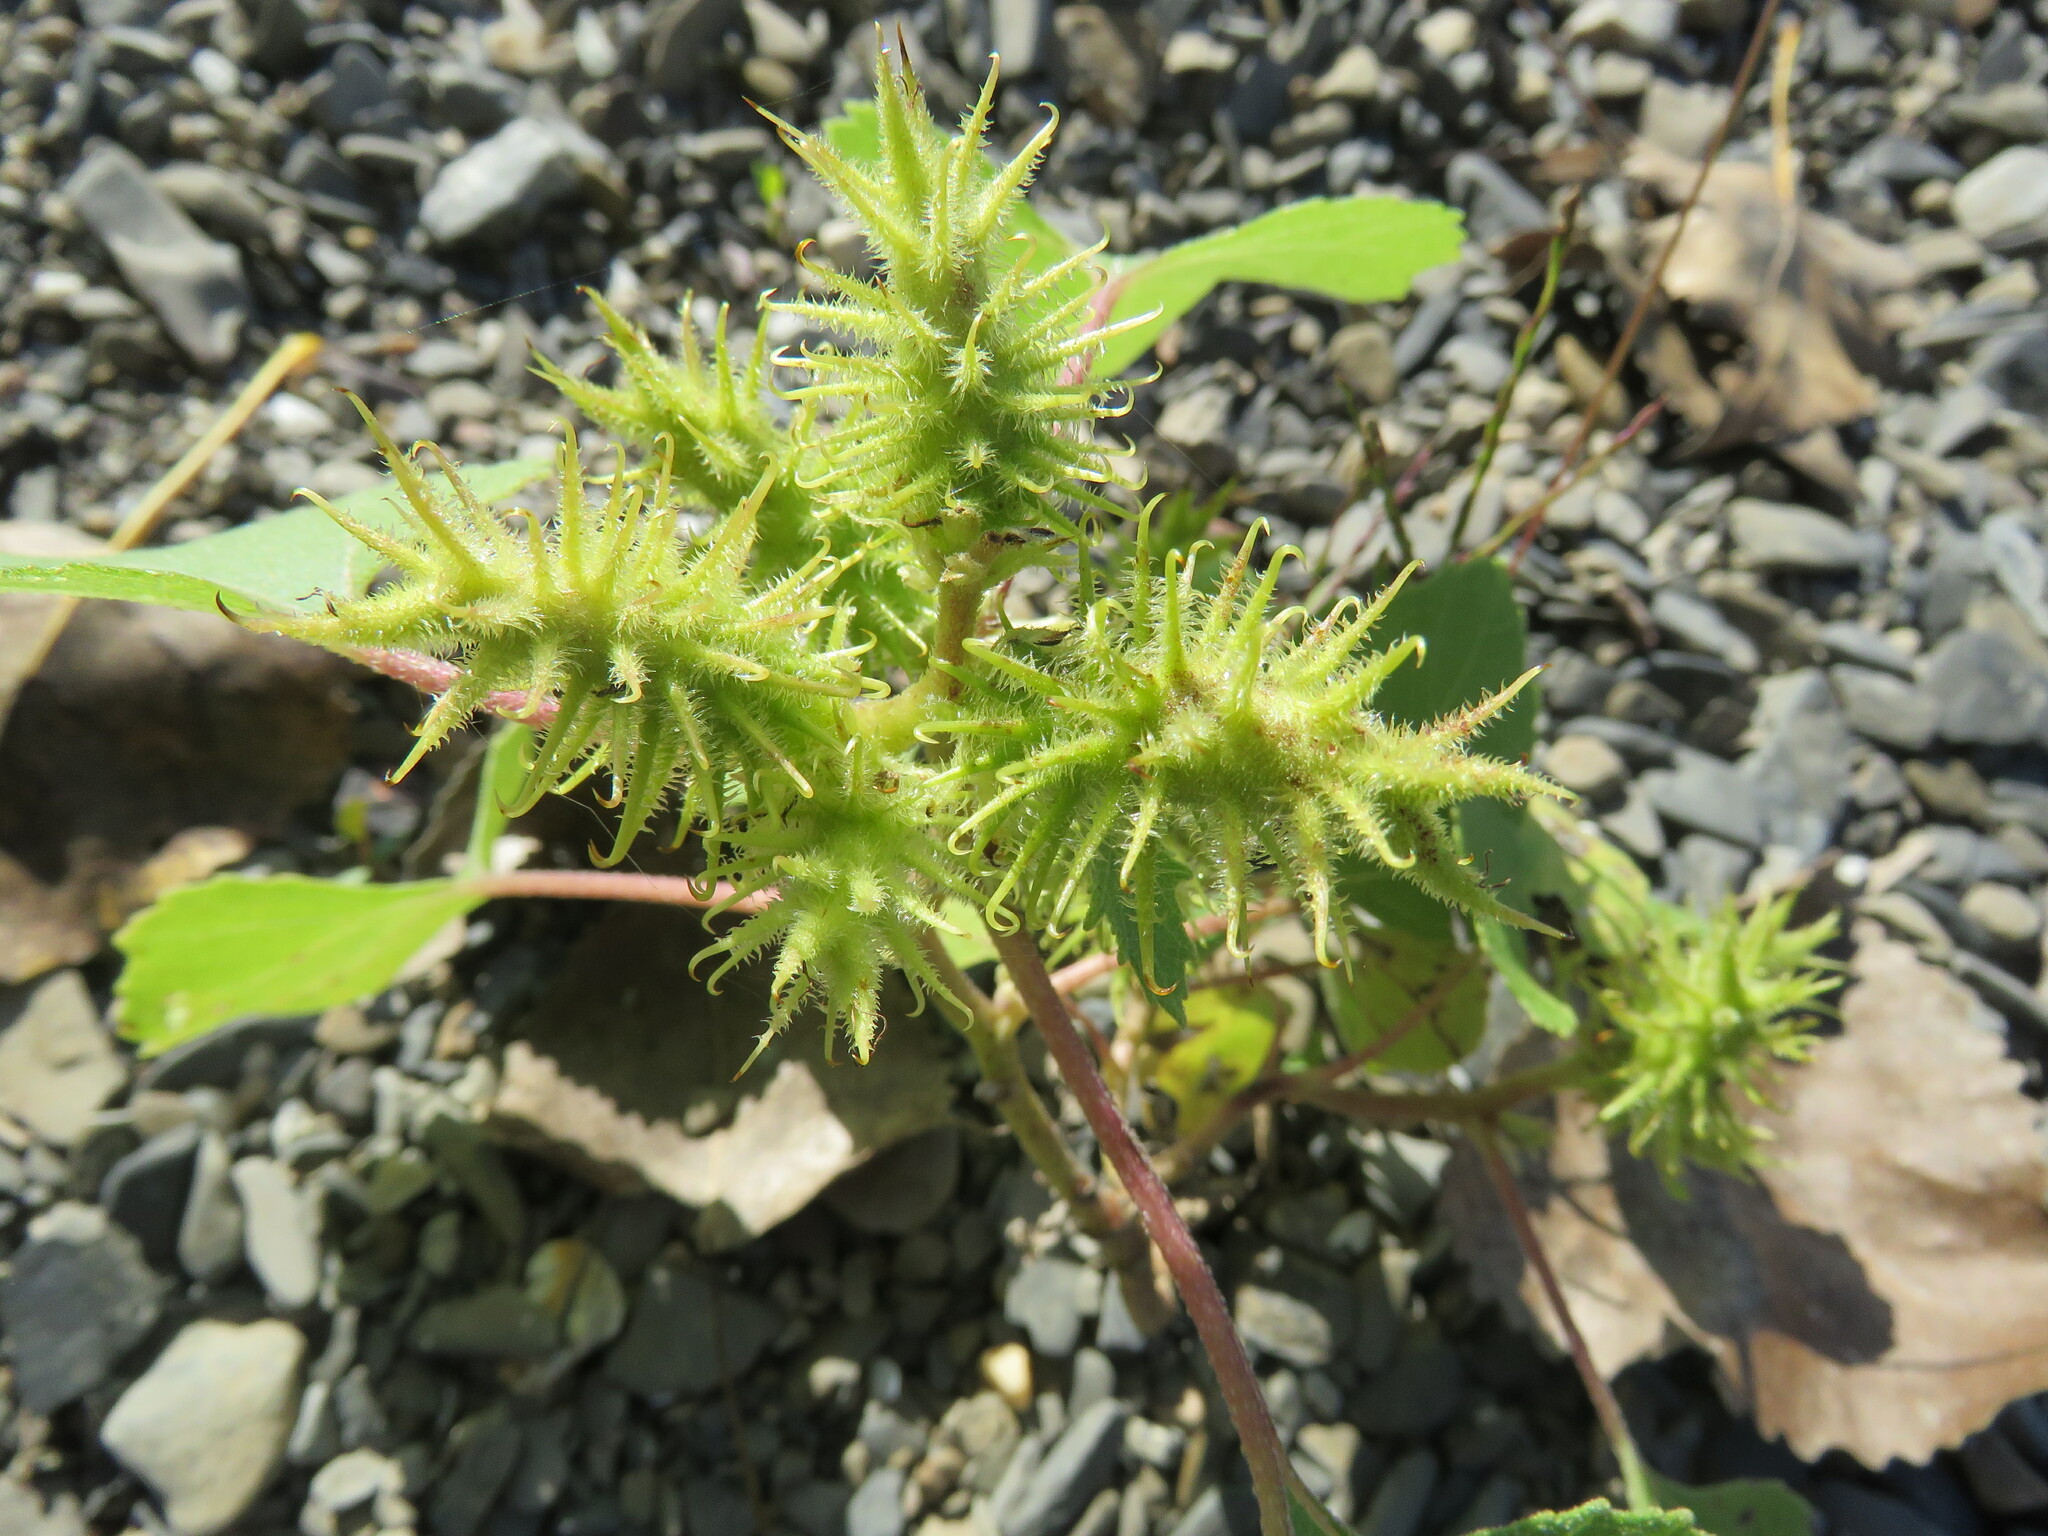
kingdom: Plantae
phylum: Tracheophyta
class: Magnoliopsida
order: Asterales
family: Asteraceae
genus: Xanthium
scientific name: Xanthium strumarium
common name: Rough cocklebur
